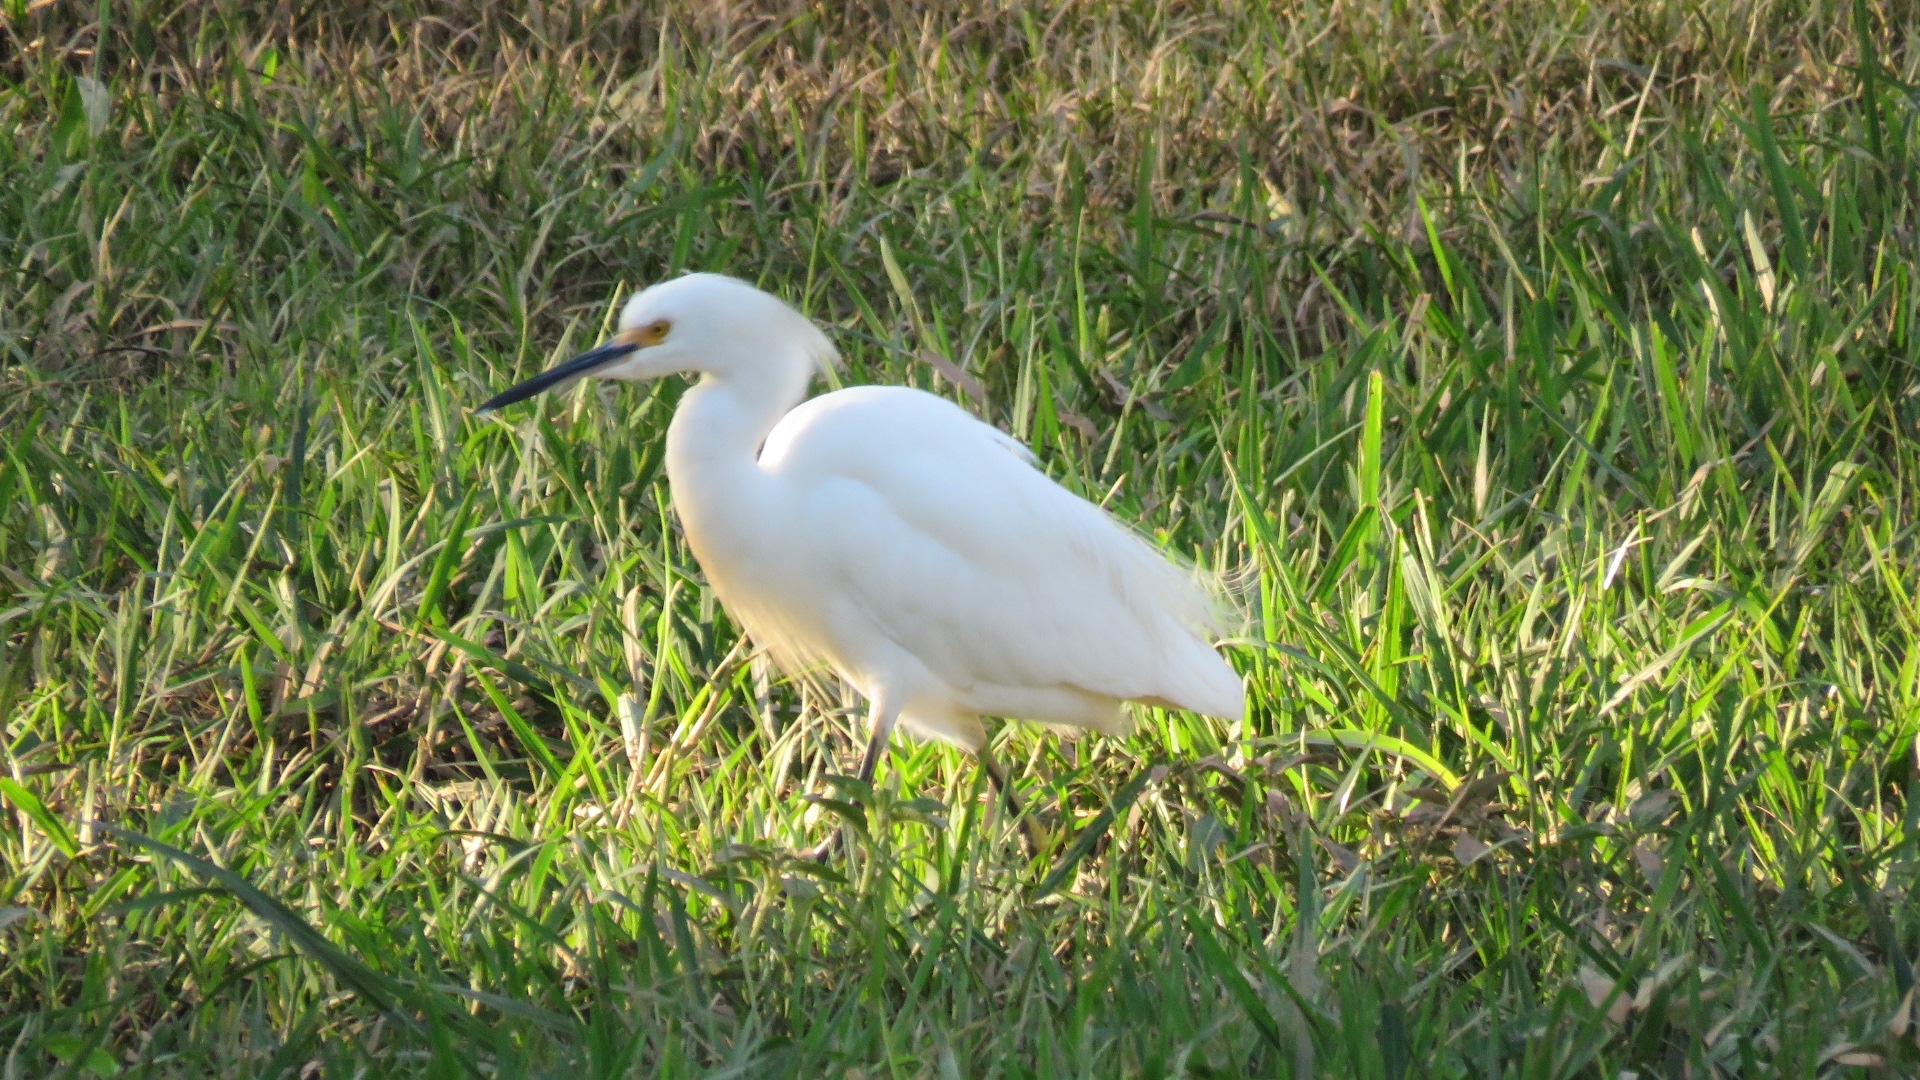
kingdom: Animalia
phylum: Chordata
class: Aves
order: Pelecaniformes
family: Ardeidae
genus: Egretta
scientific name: Egretta thula
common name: Snowy egret
